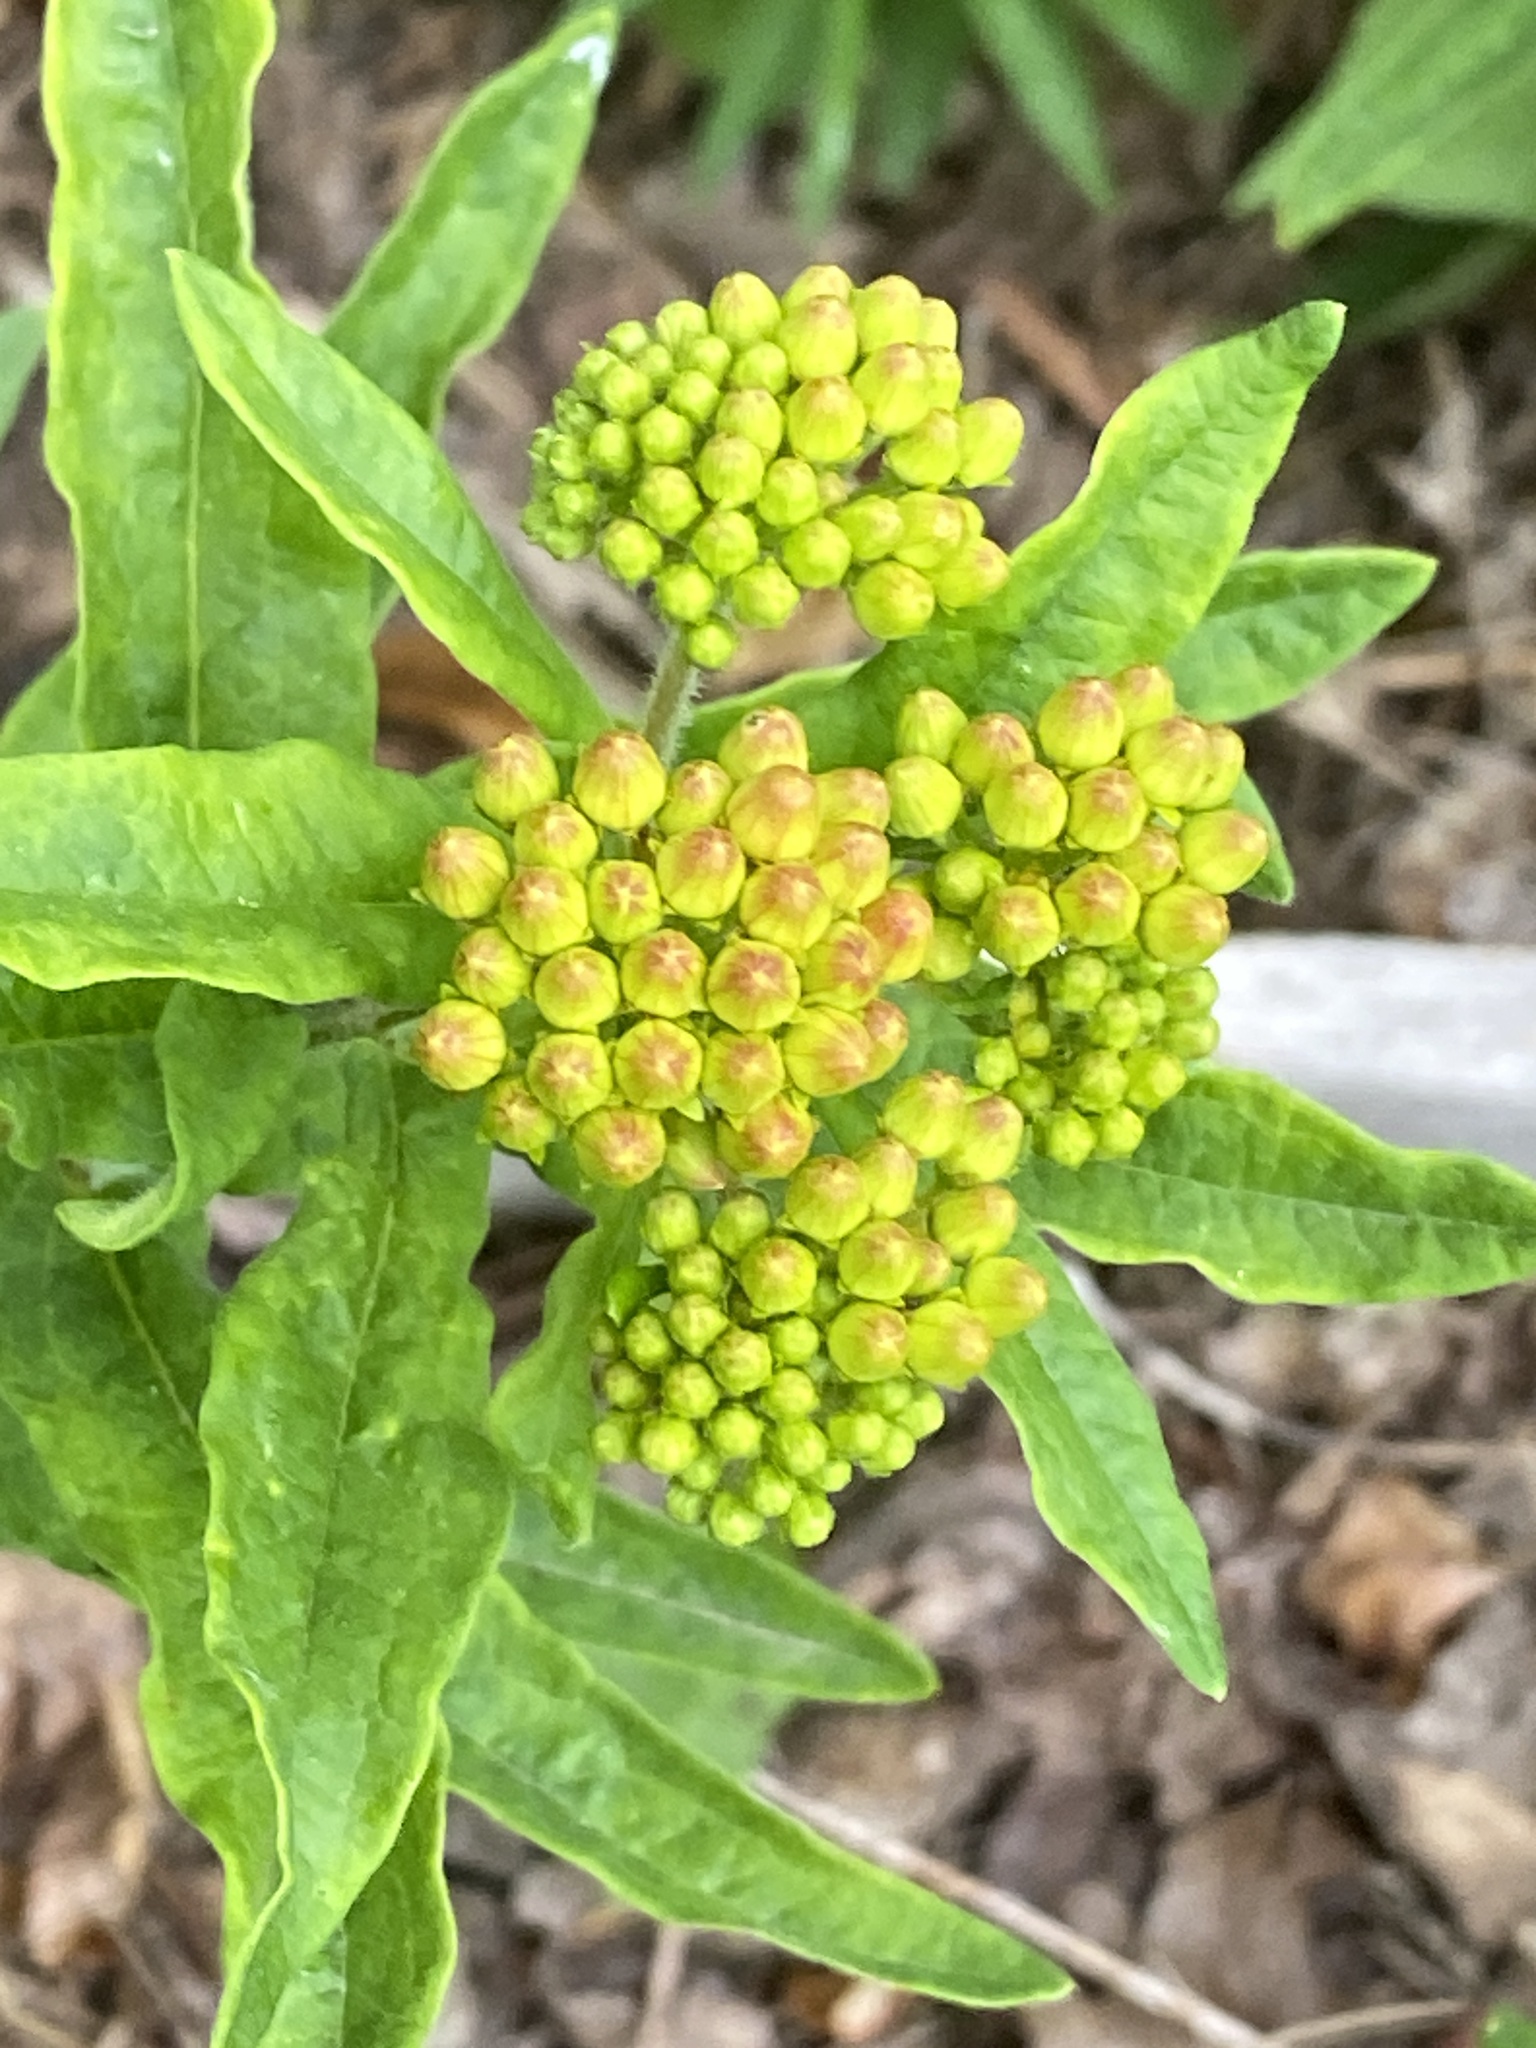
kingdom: Plantae
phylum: Tracheophyta
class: Magnoliopsida
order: Gentianales
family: Apocynaceae
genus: Asclepias
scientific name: Asclepias tuberosa
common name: Butterfly milkweed
